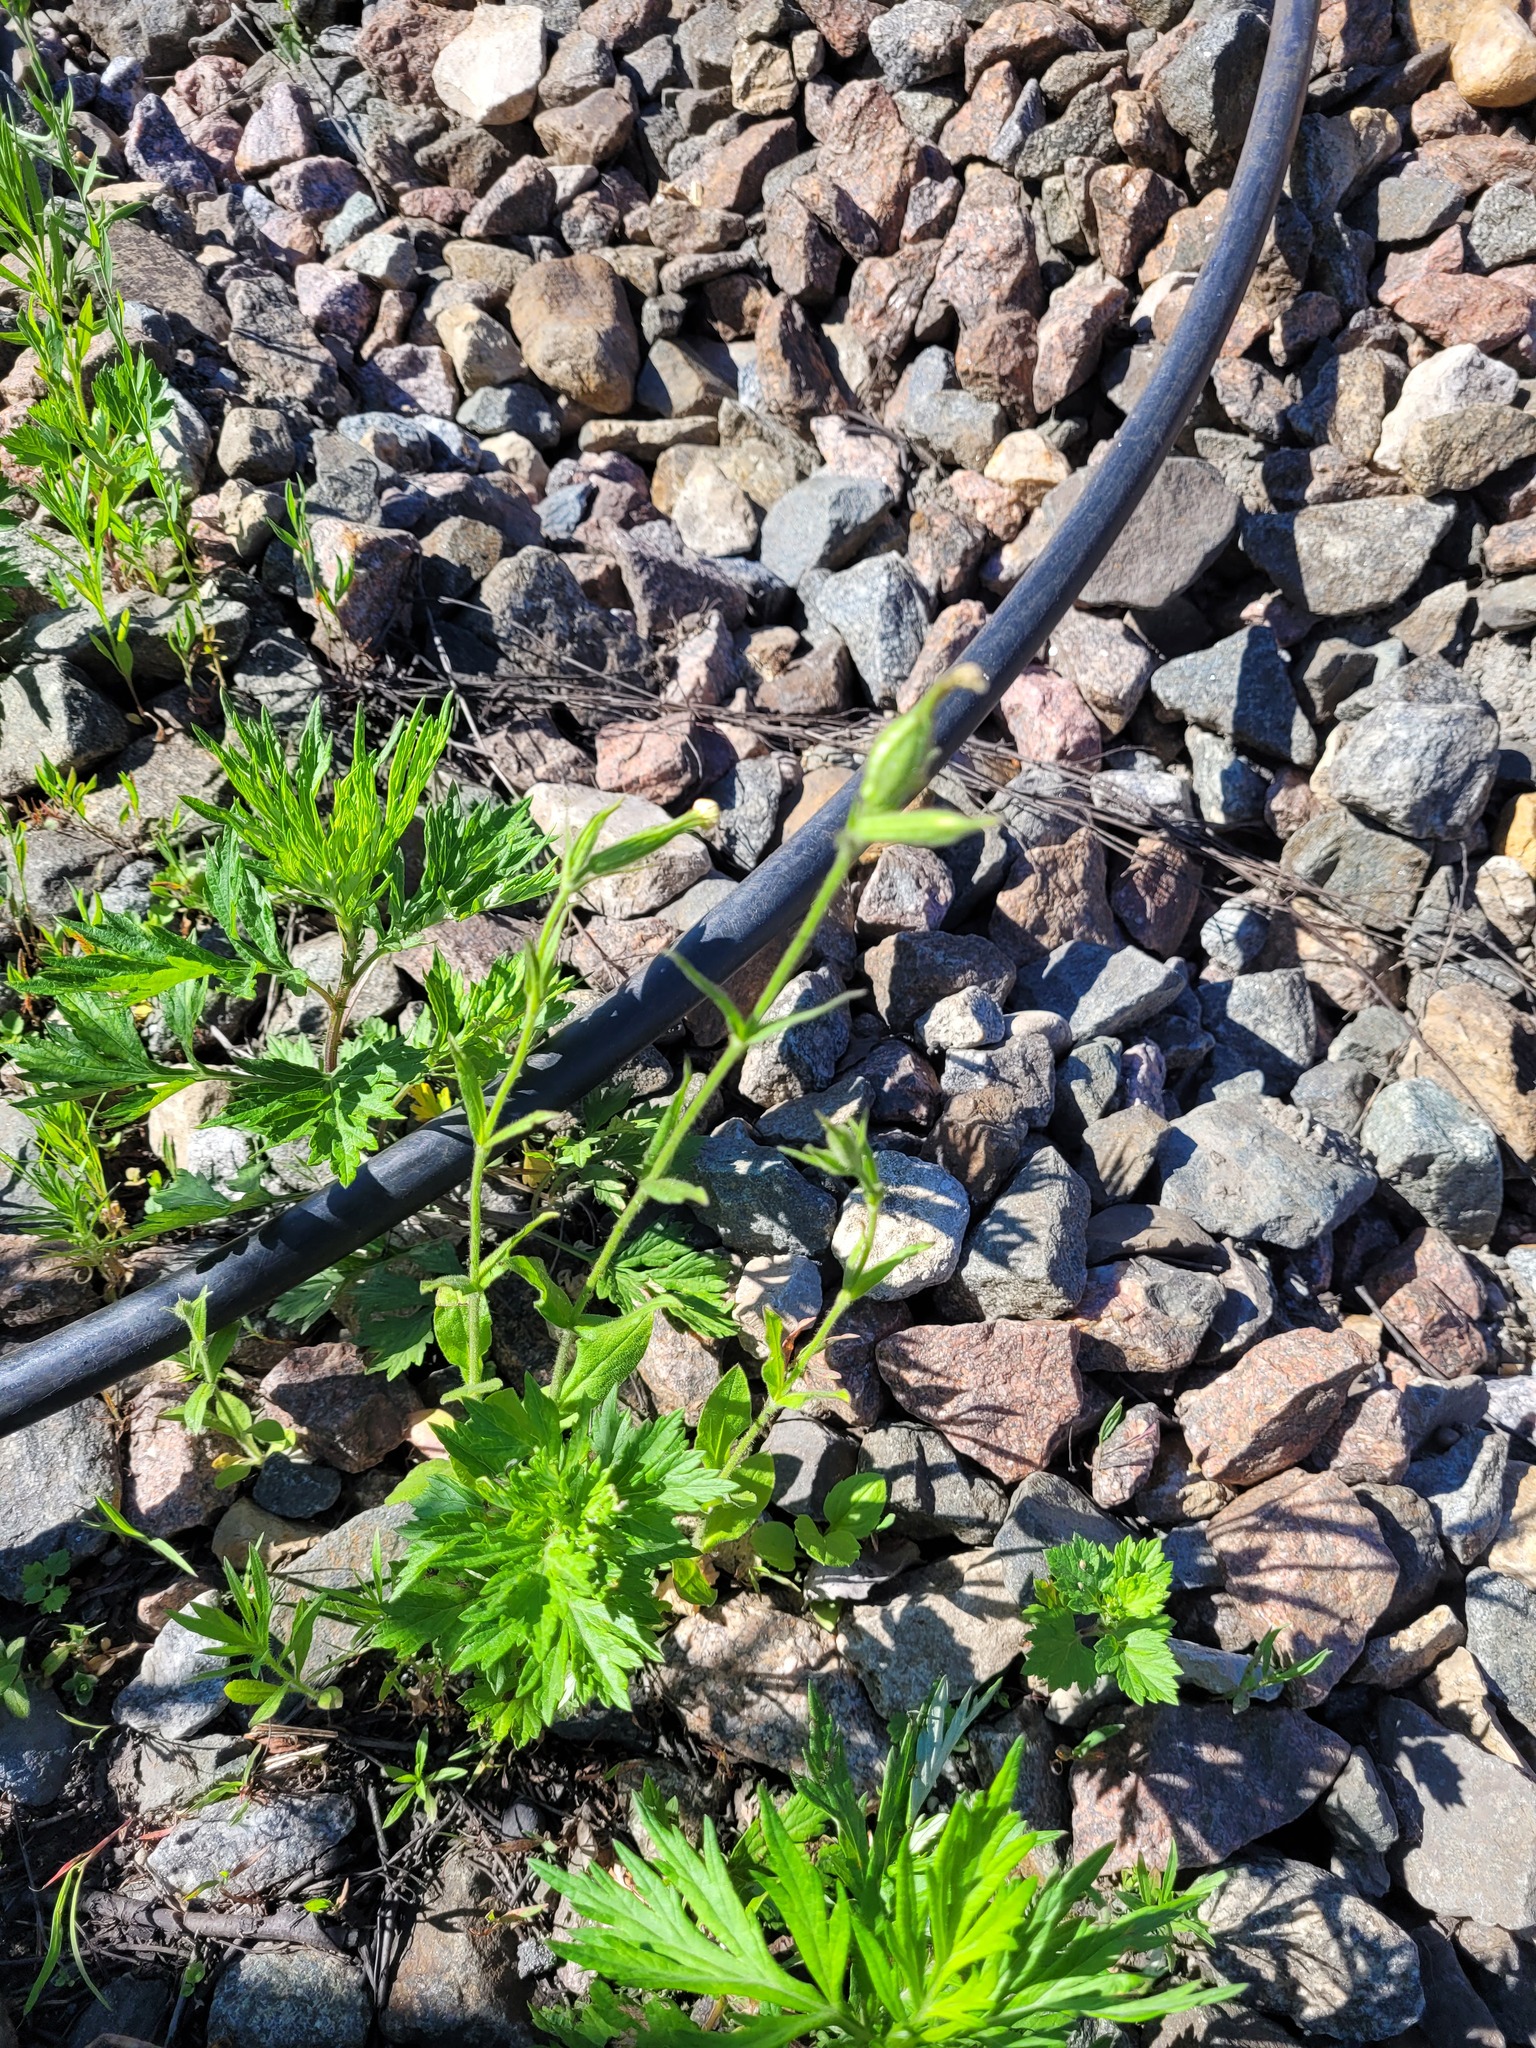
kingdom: Plantae
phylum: Tracheophyta
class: Magnoliopsida
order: Caryophyllales
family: Caryophyllaceae
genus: Silene
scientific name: Silene noctiflora
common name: Night-flowering catchfly
